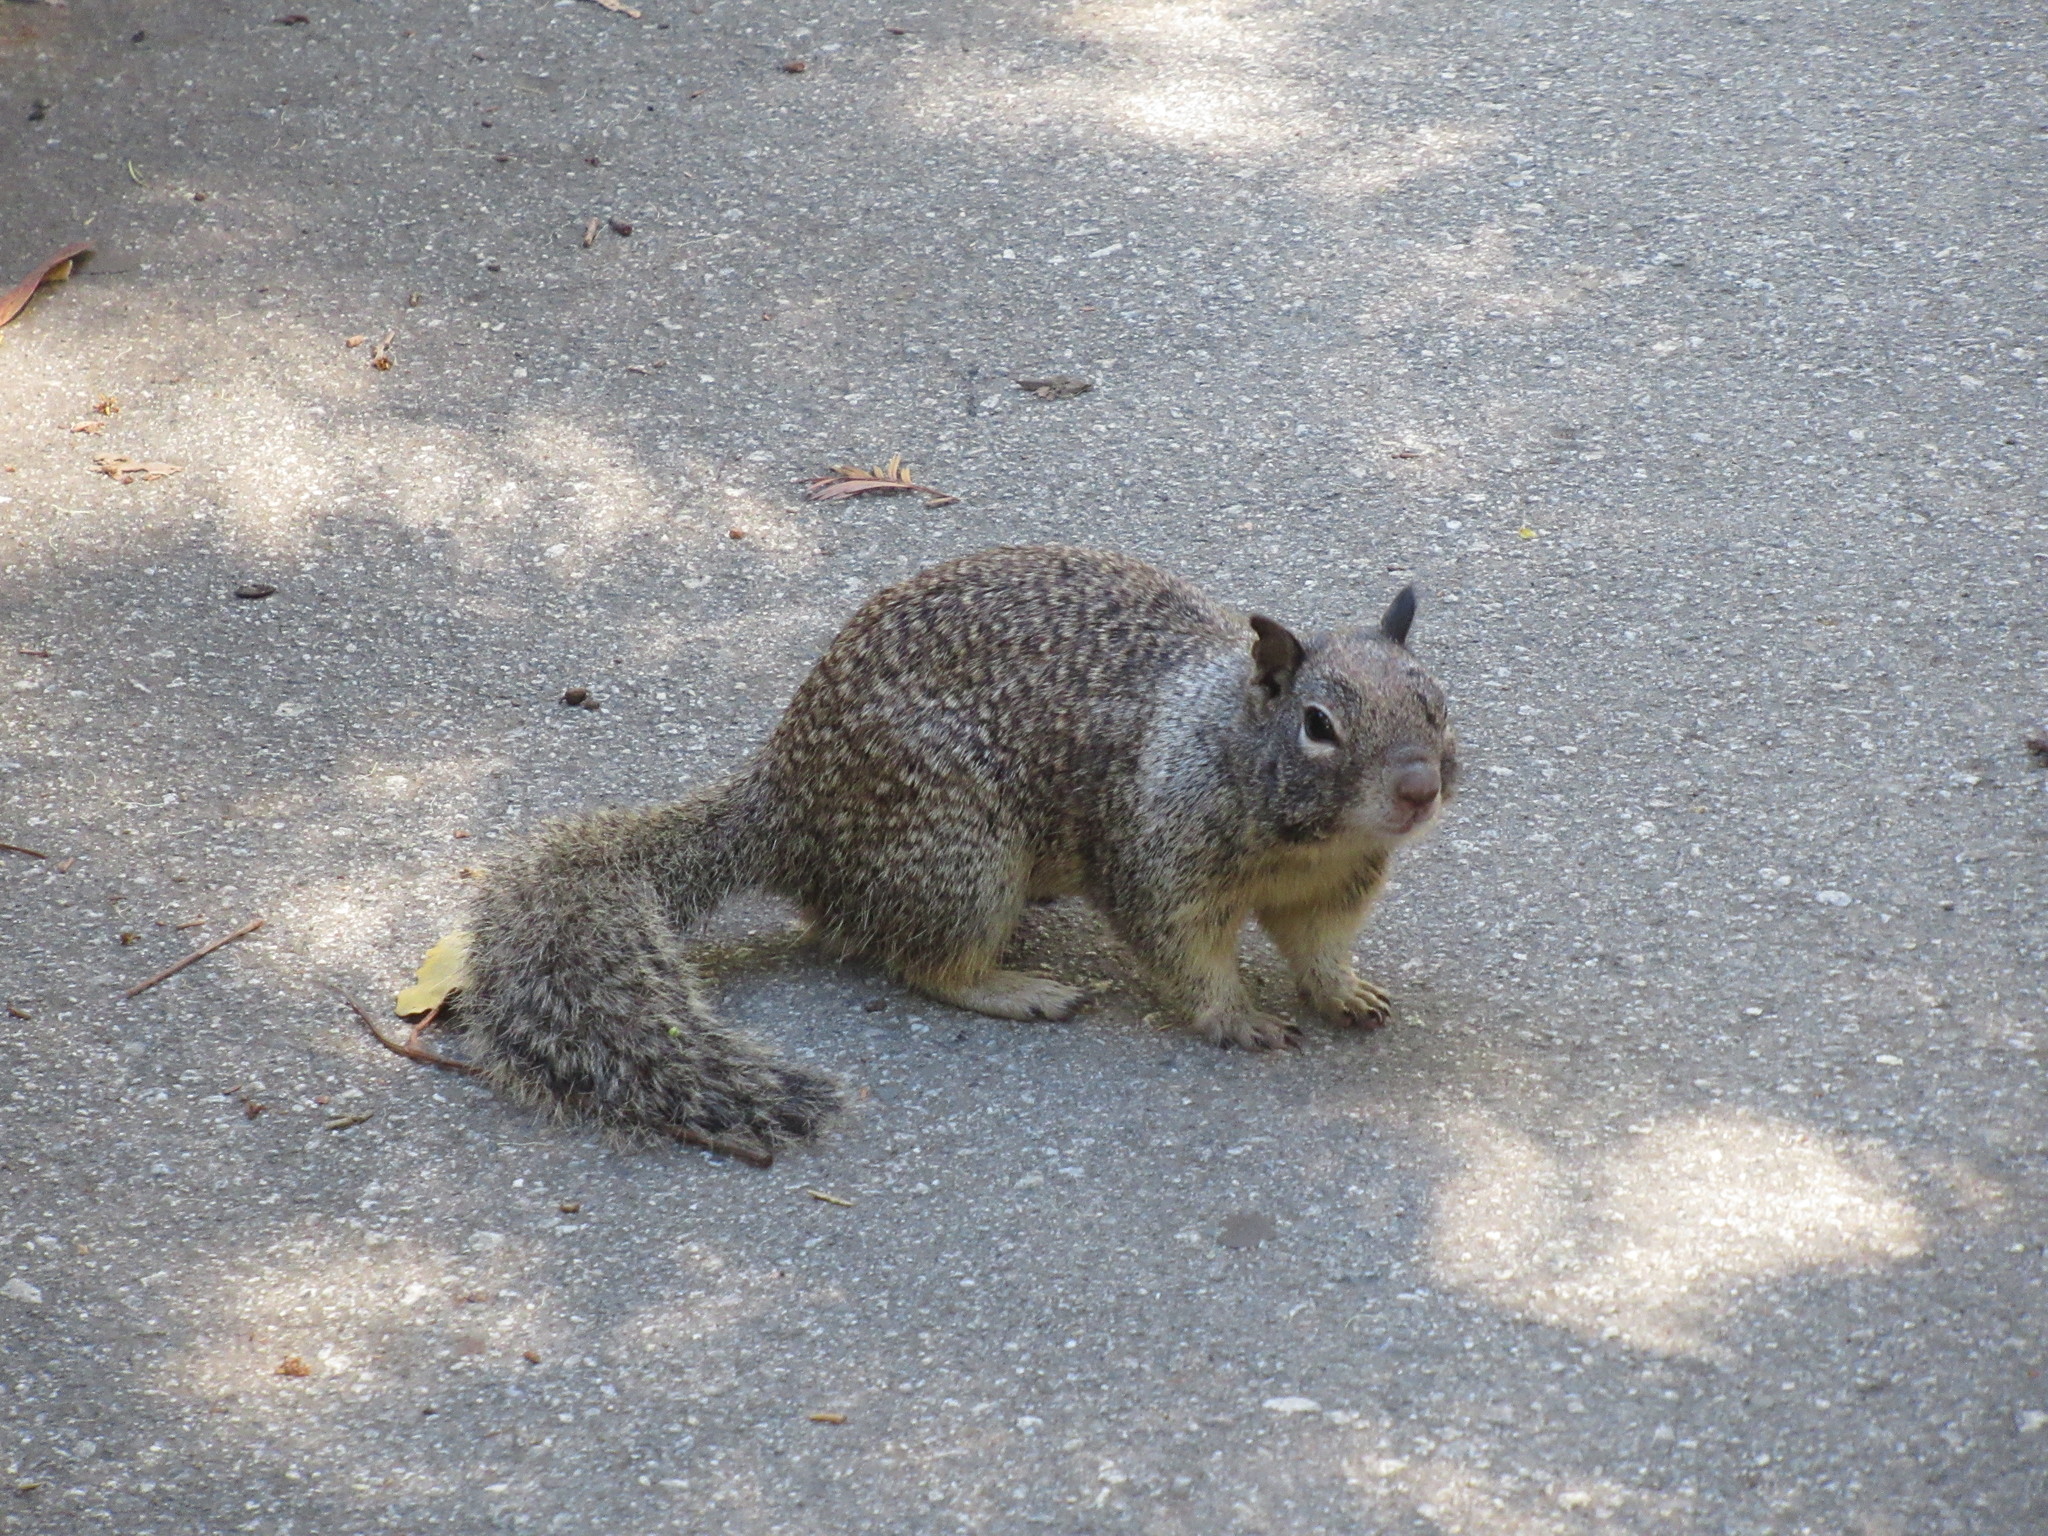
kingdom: Animalia
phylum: Chordata
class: Mammalia
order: Rodentia
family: Sciuridae
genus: Otospermophilus
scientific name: Otospermophilus beecheyi
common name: California ground squirrel
